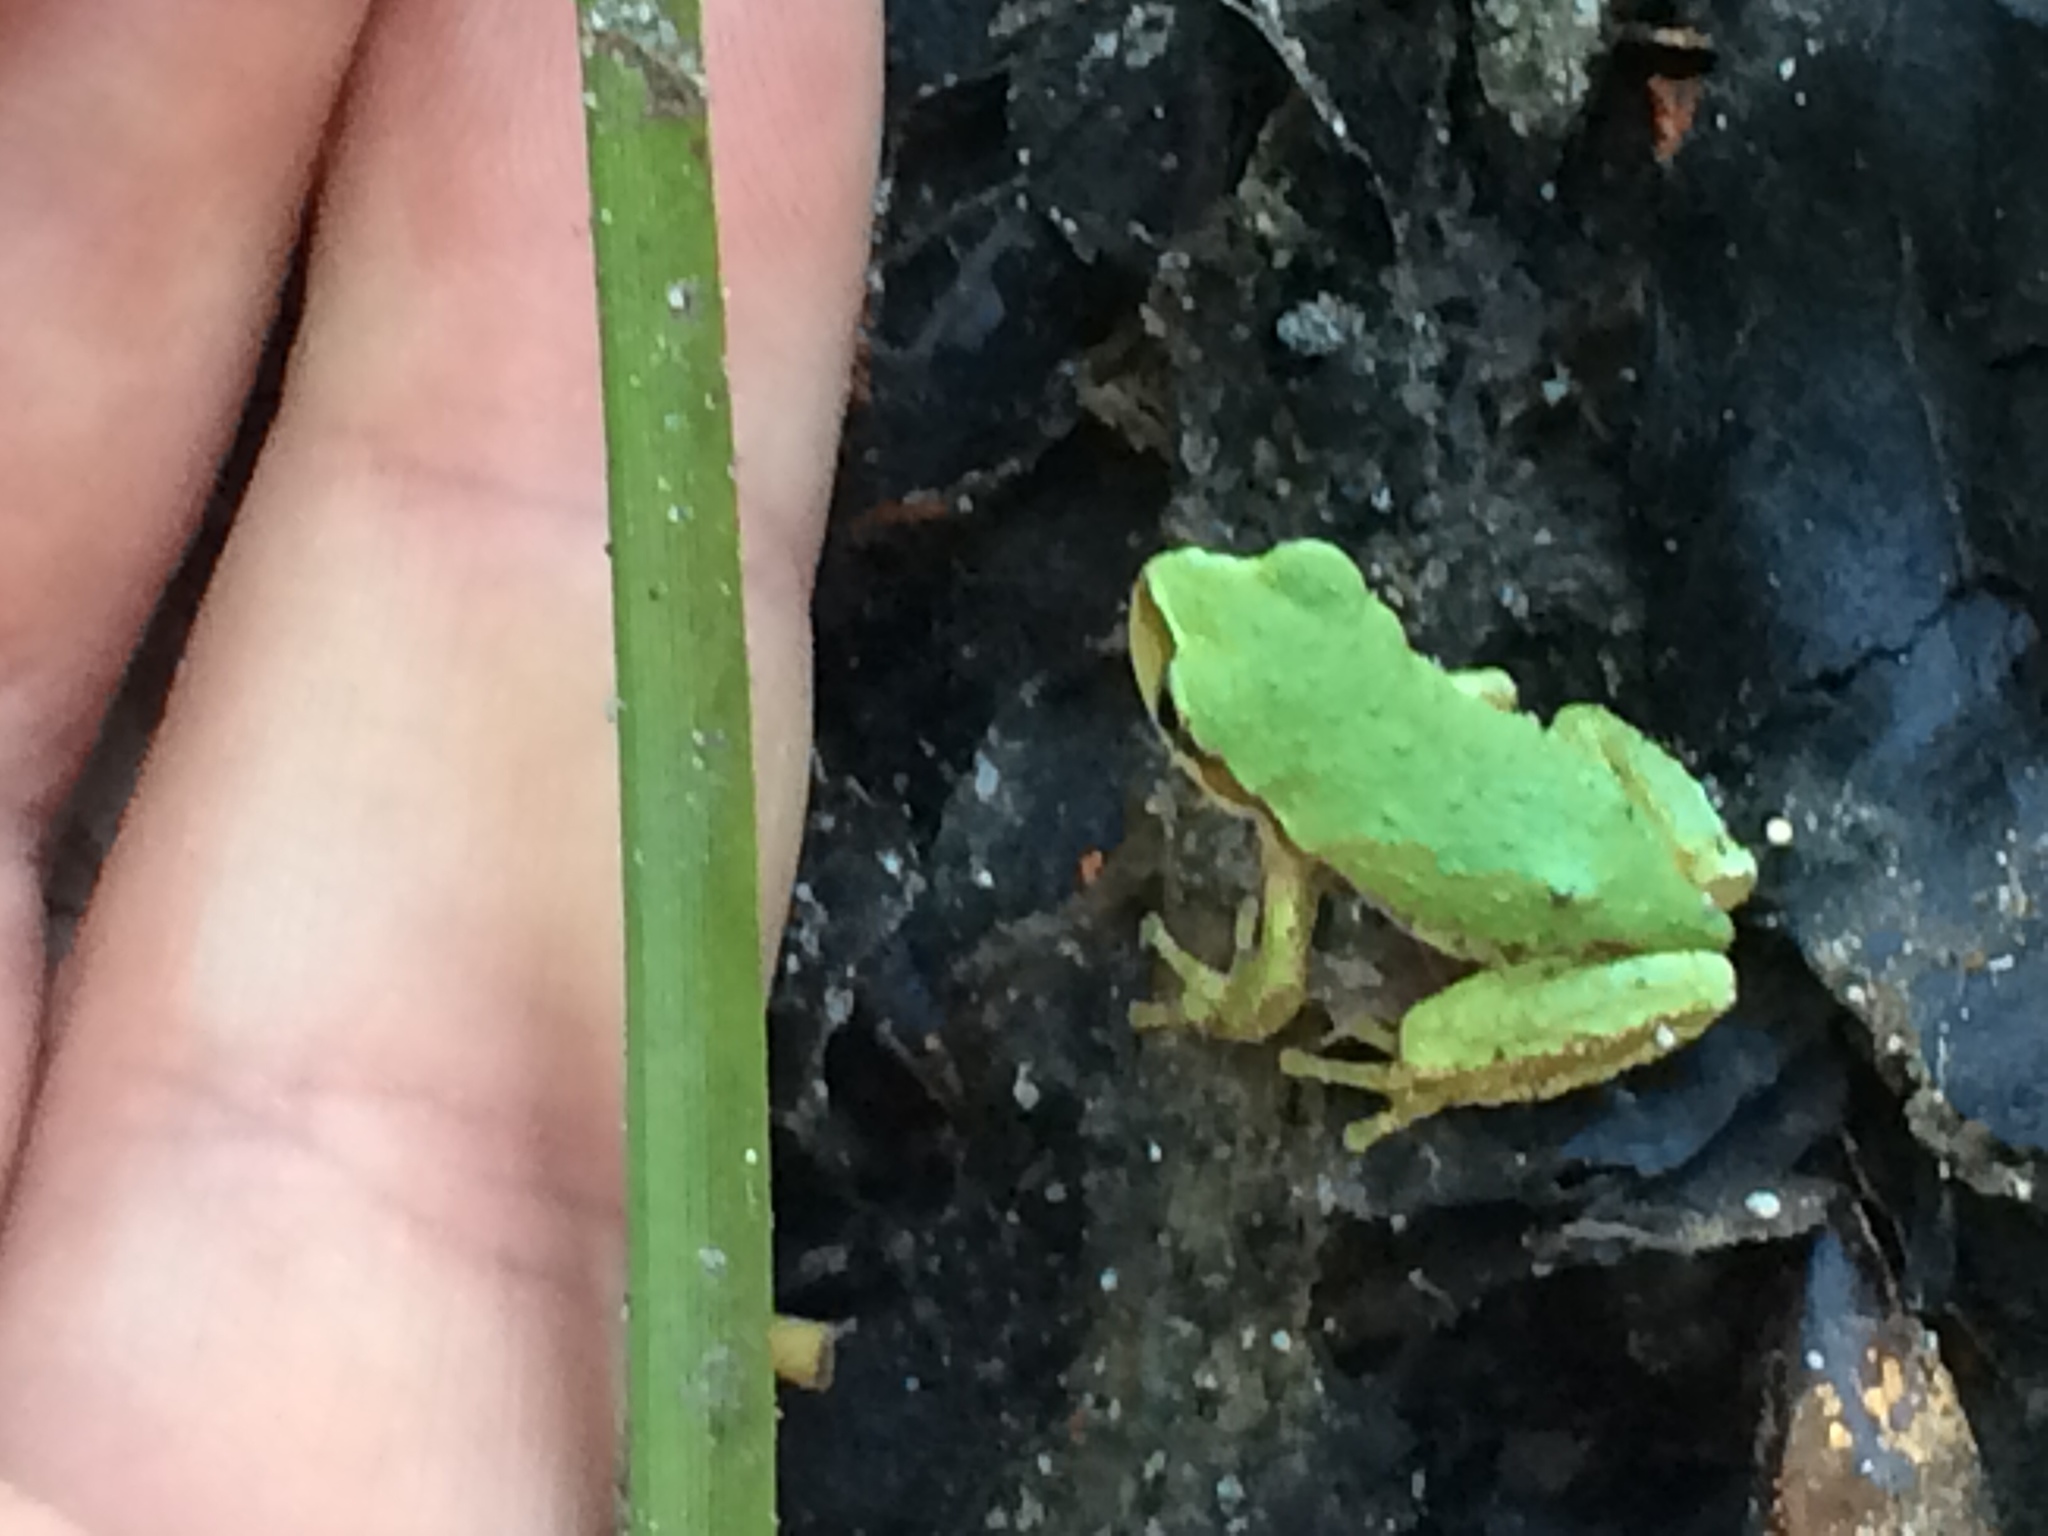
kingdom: Animalia
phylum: Chordata
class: Amphibia
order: Anura
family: Hylidae
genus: Pseudacris
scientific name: Pseudacris regilla
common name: Pacific chorus frog
